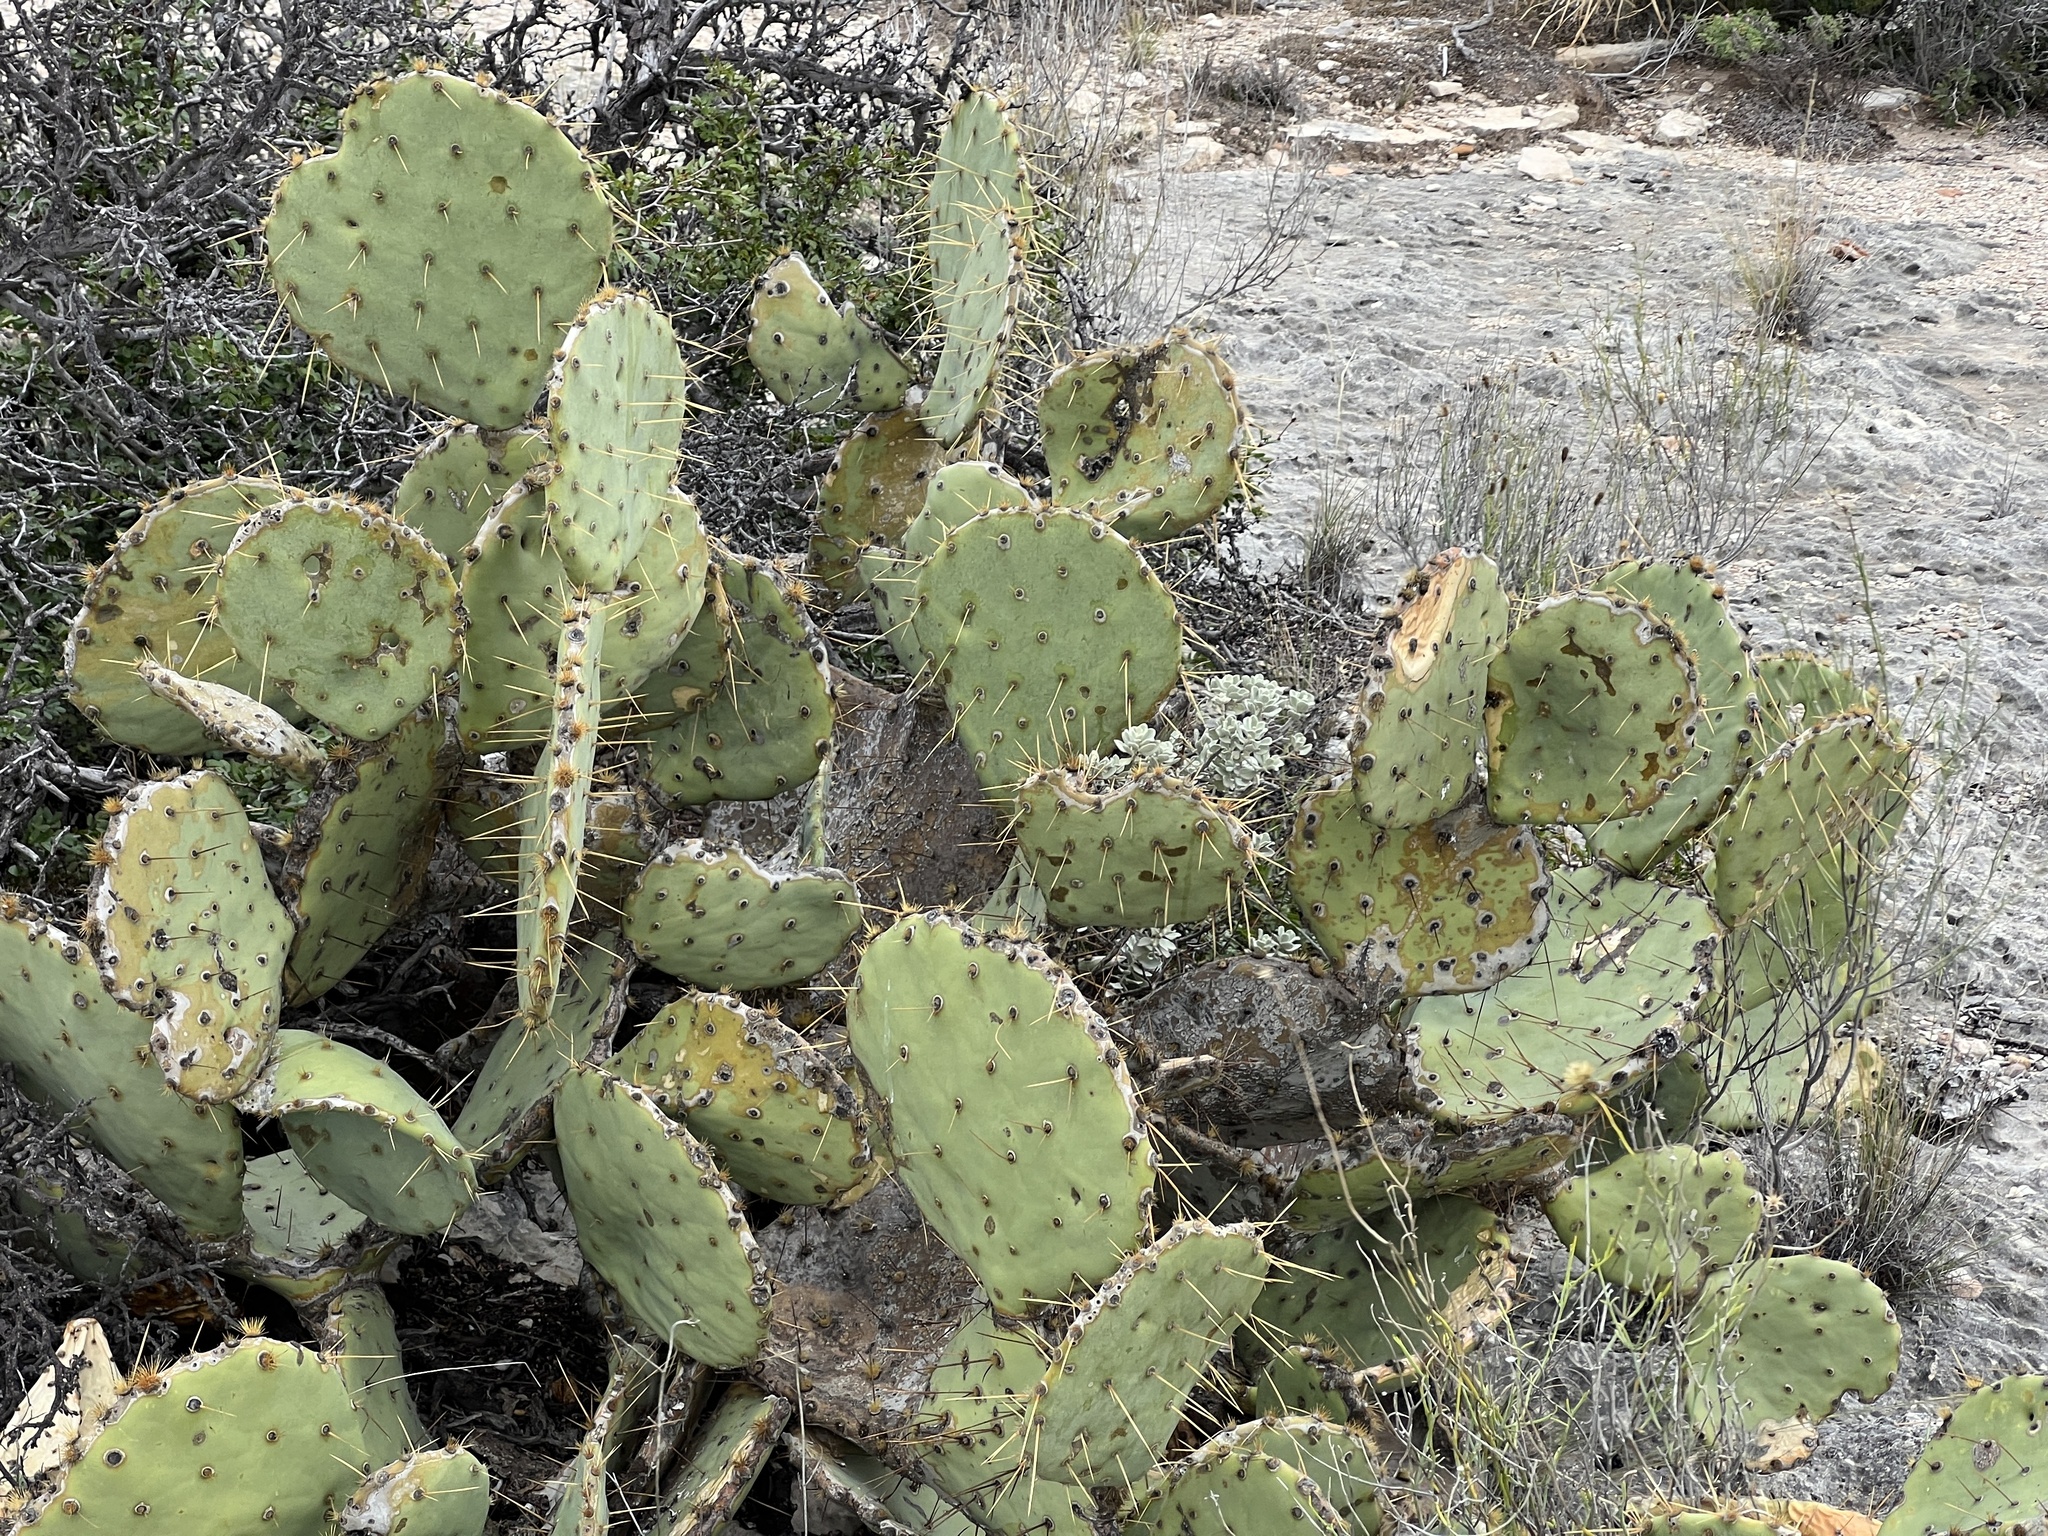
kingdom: Plantae
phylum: Tracheophyta
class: Magnoliopsida
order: Caryophyllales
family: Cactaceae
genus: Opuntia
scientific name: Opuntia engelmannii
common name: Cactus-apple
